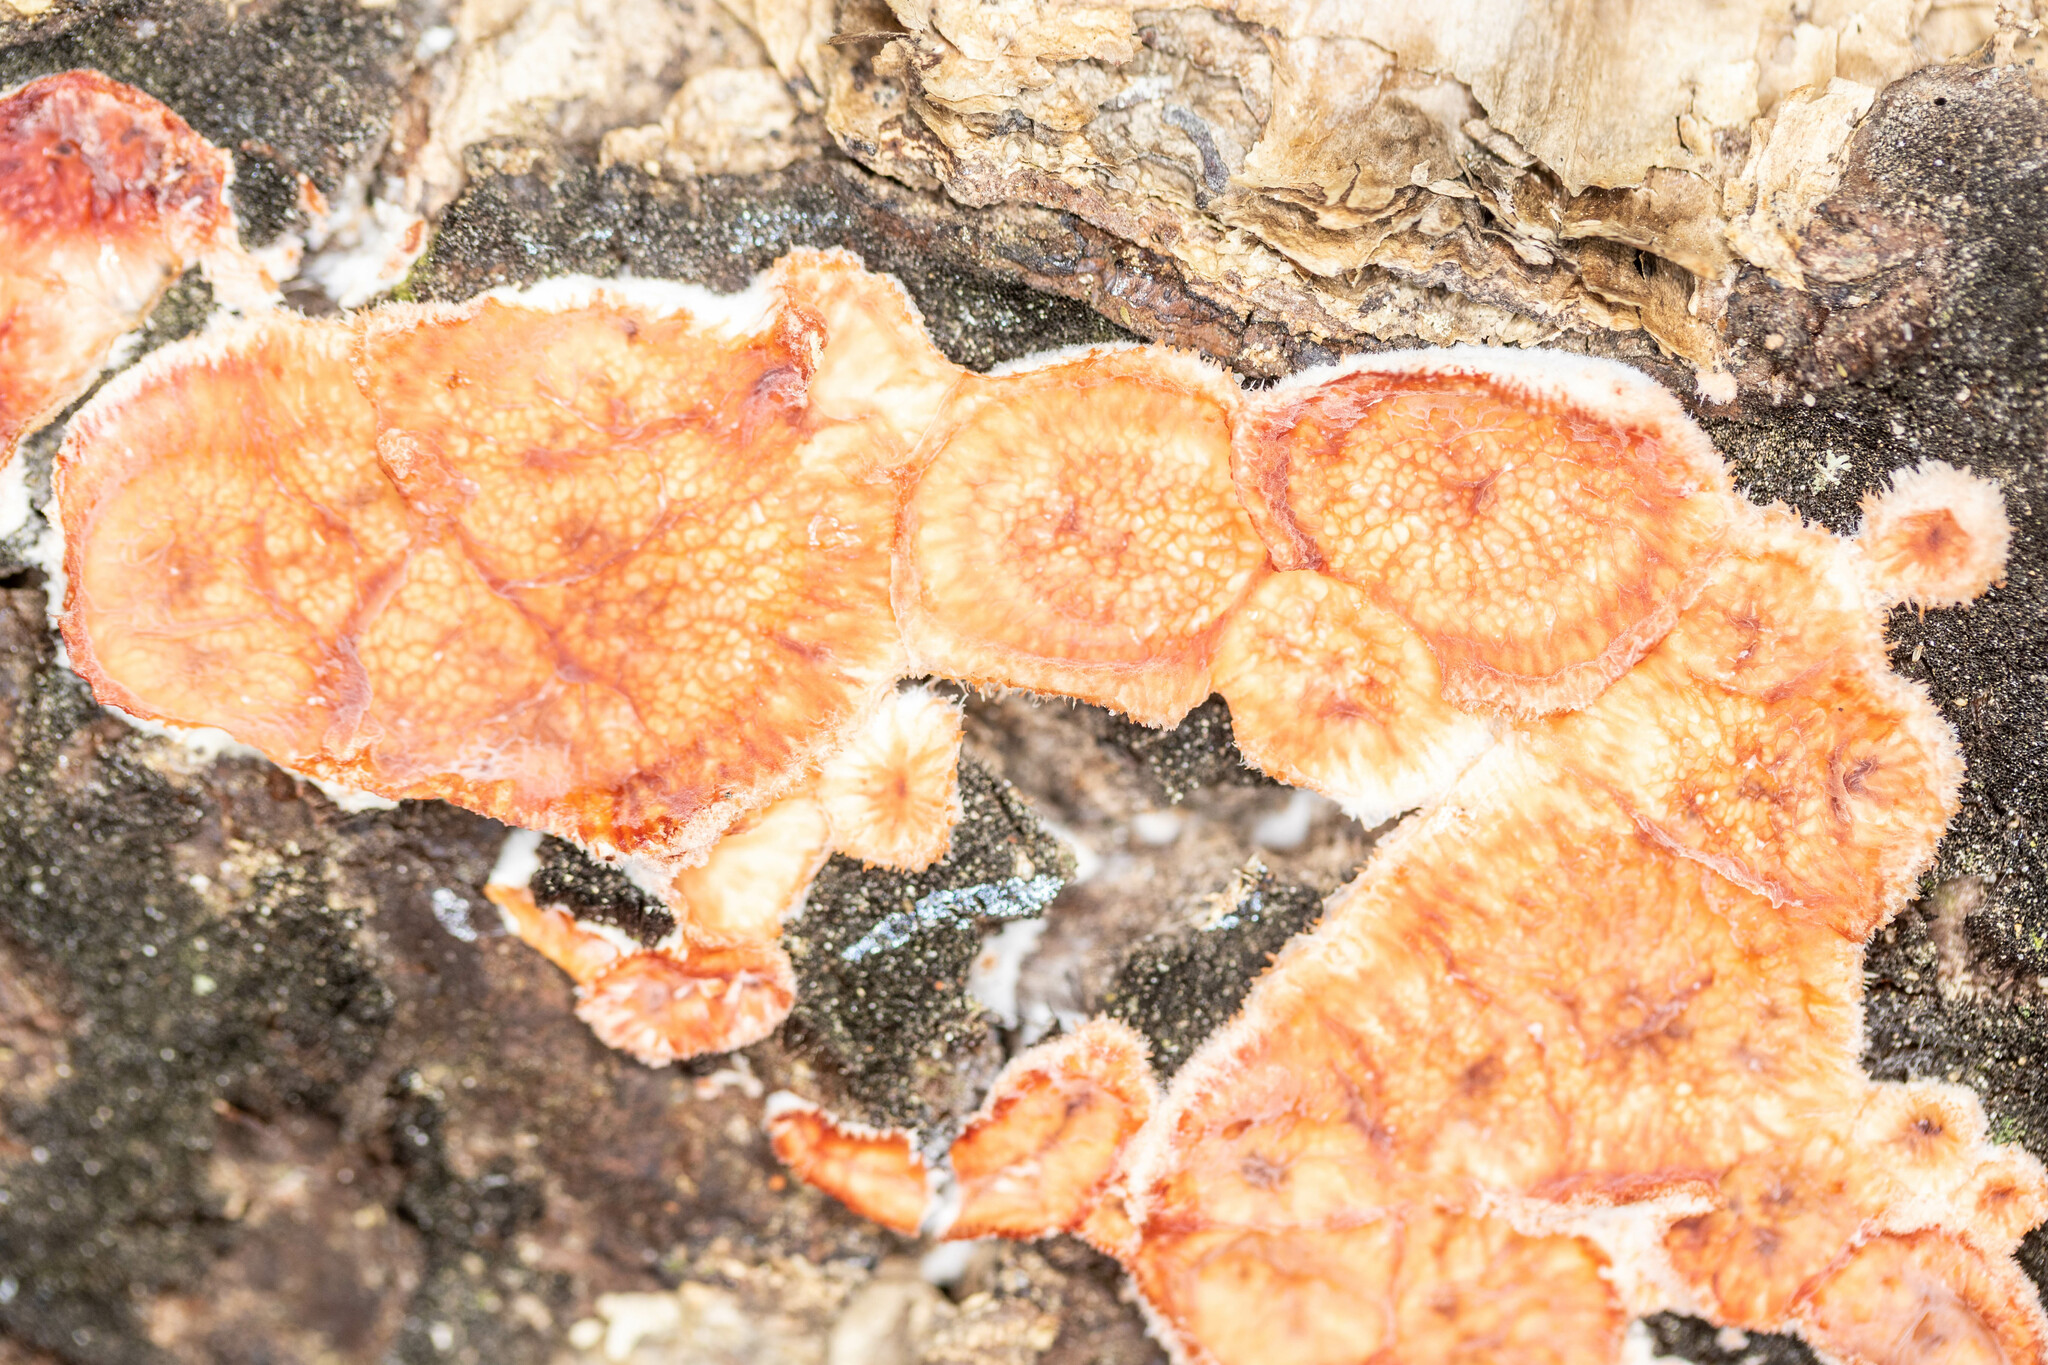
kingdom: Fungi
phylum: Basidiomycota
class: Agaricomycetes
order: Polyporales
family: Meruliaceae
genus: Phlebia
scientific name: Phlebia tremellosa
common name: Jelly rot
